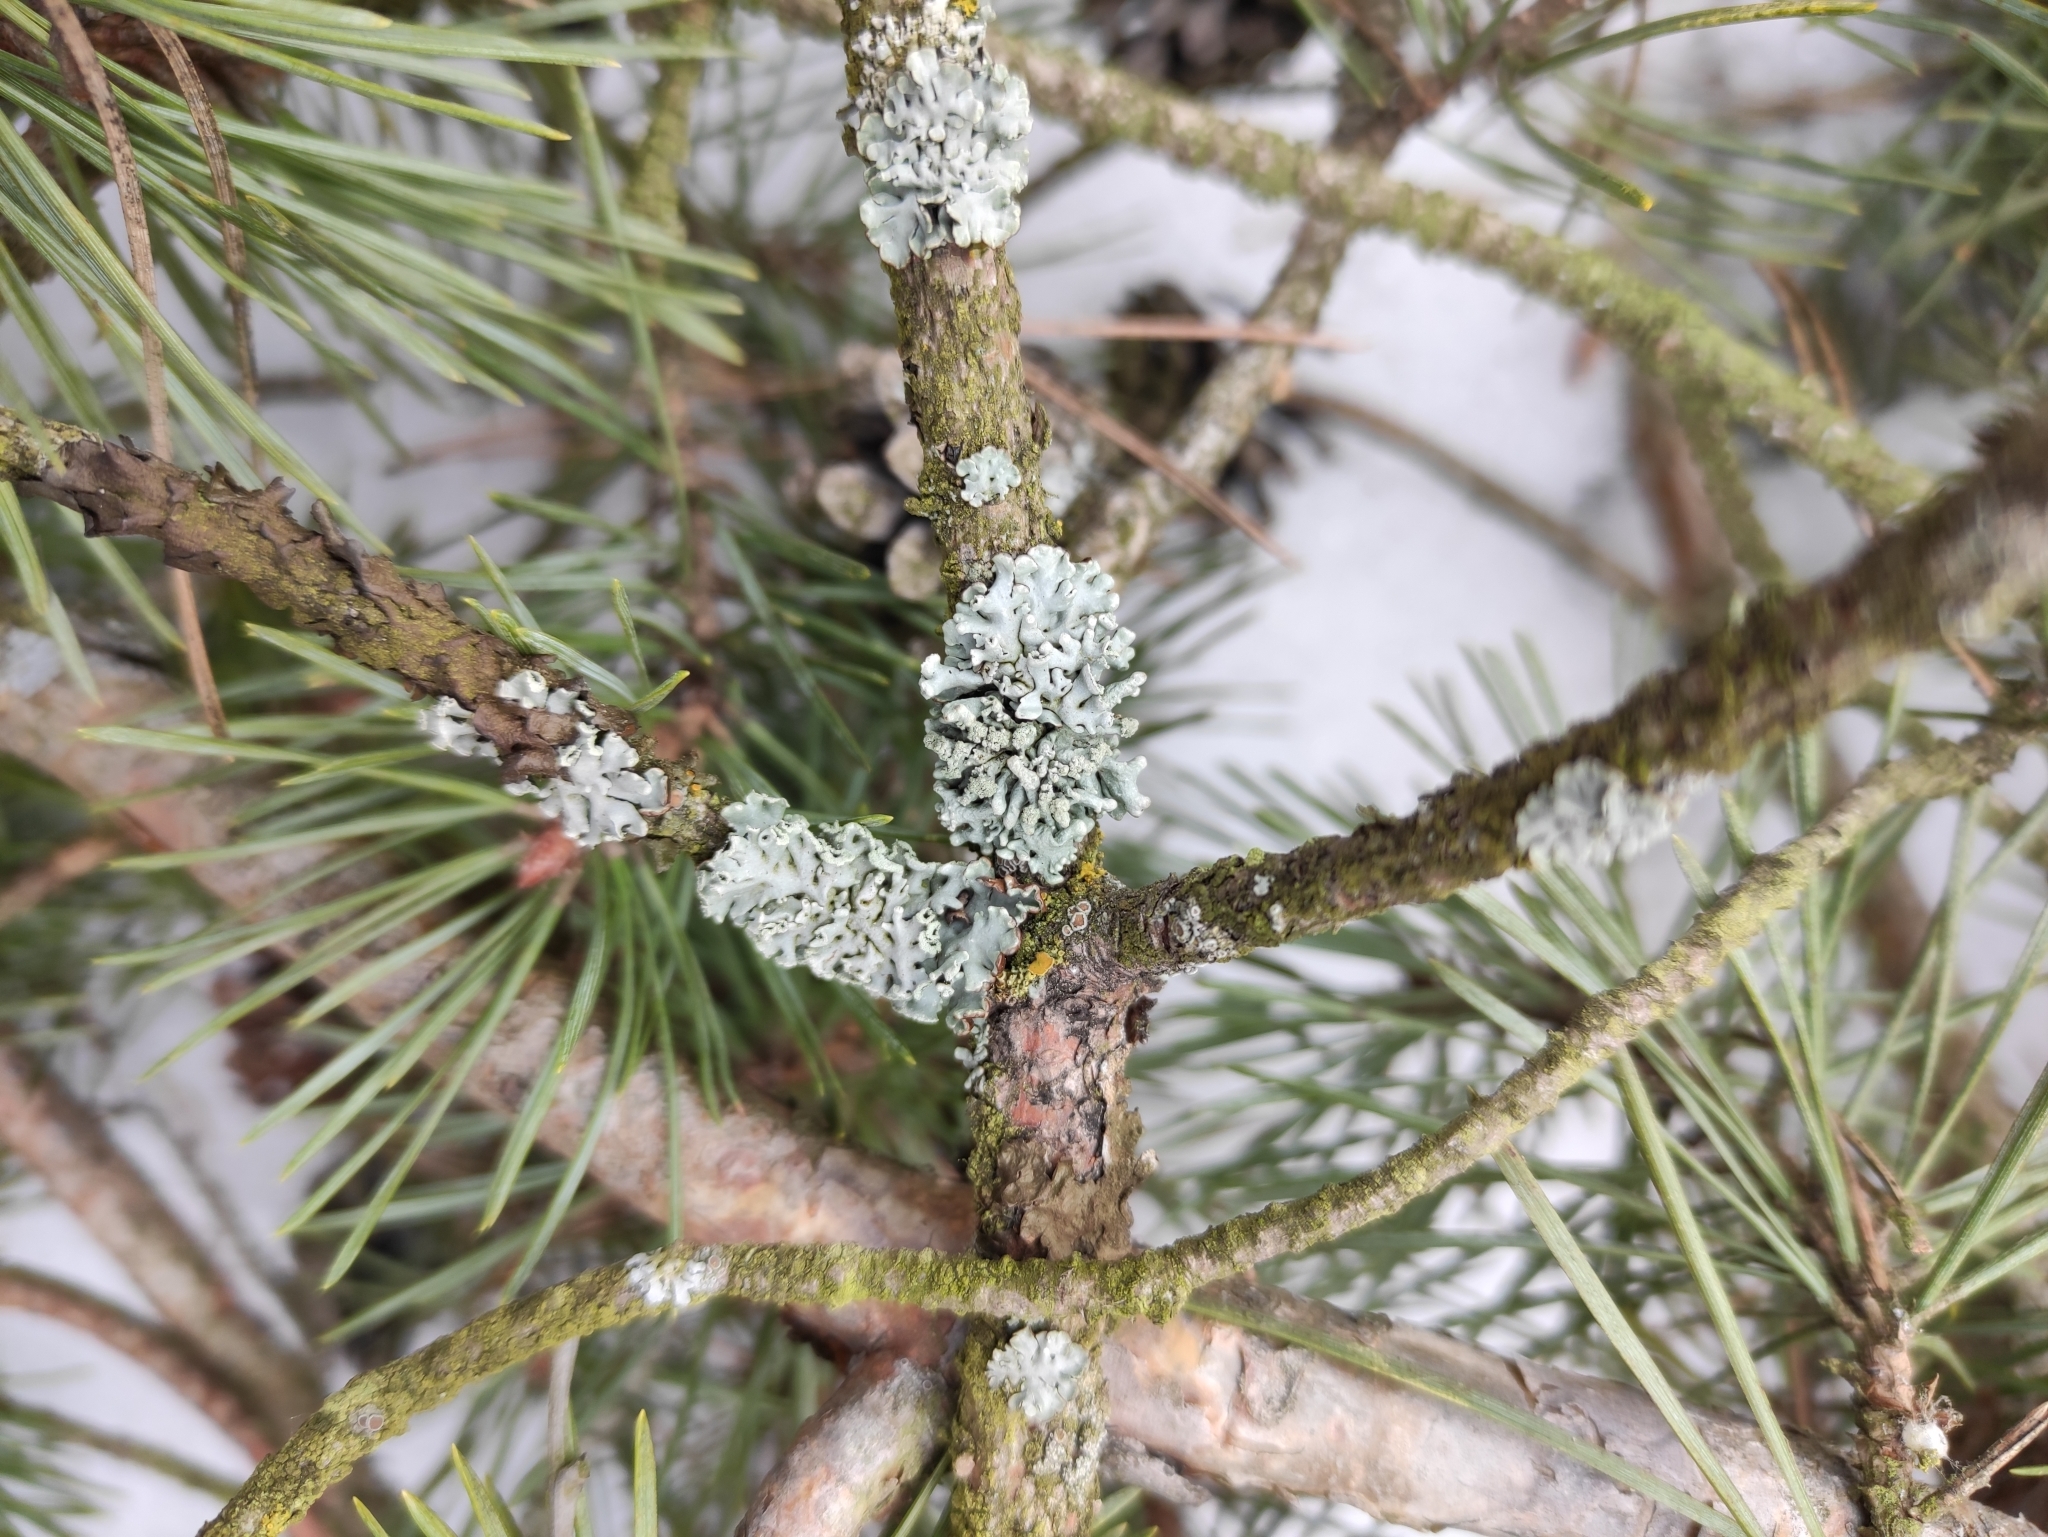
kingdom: Fungi
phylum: Ascomycota
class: Lecanoromycetes
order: Lecanorales
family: Parmeliaceae
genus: Hypogymnia
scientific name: Hypogymnia physodes
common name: Dark crottle
